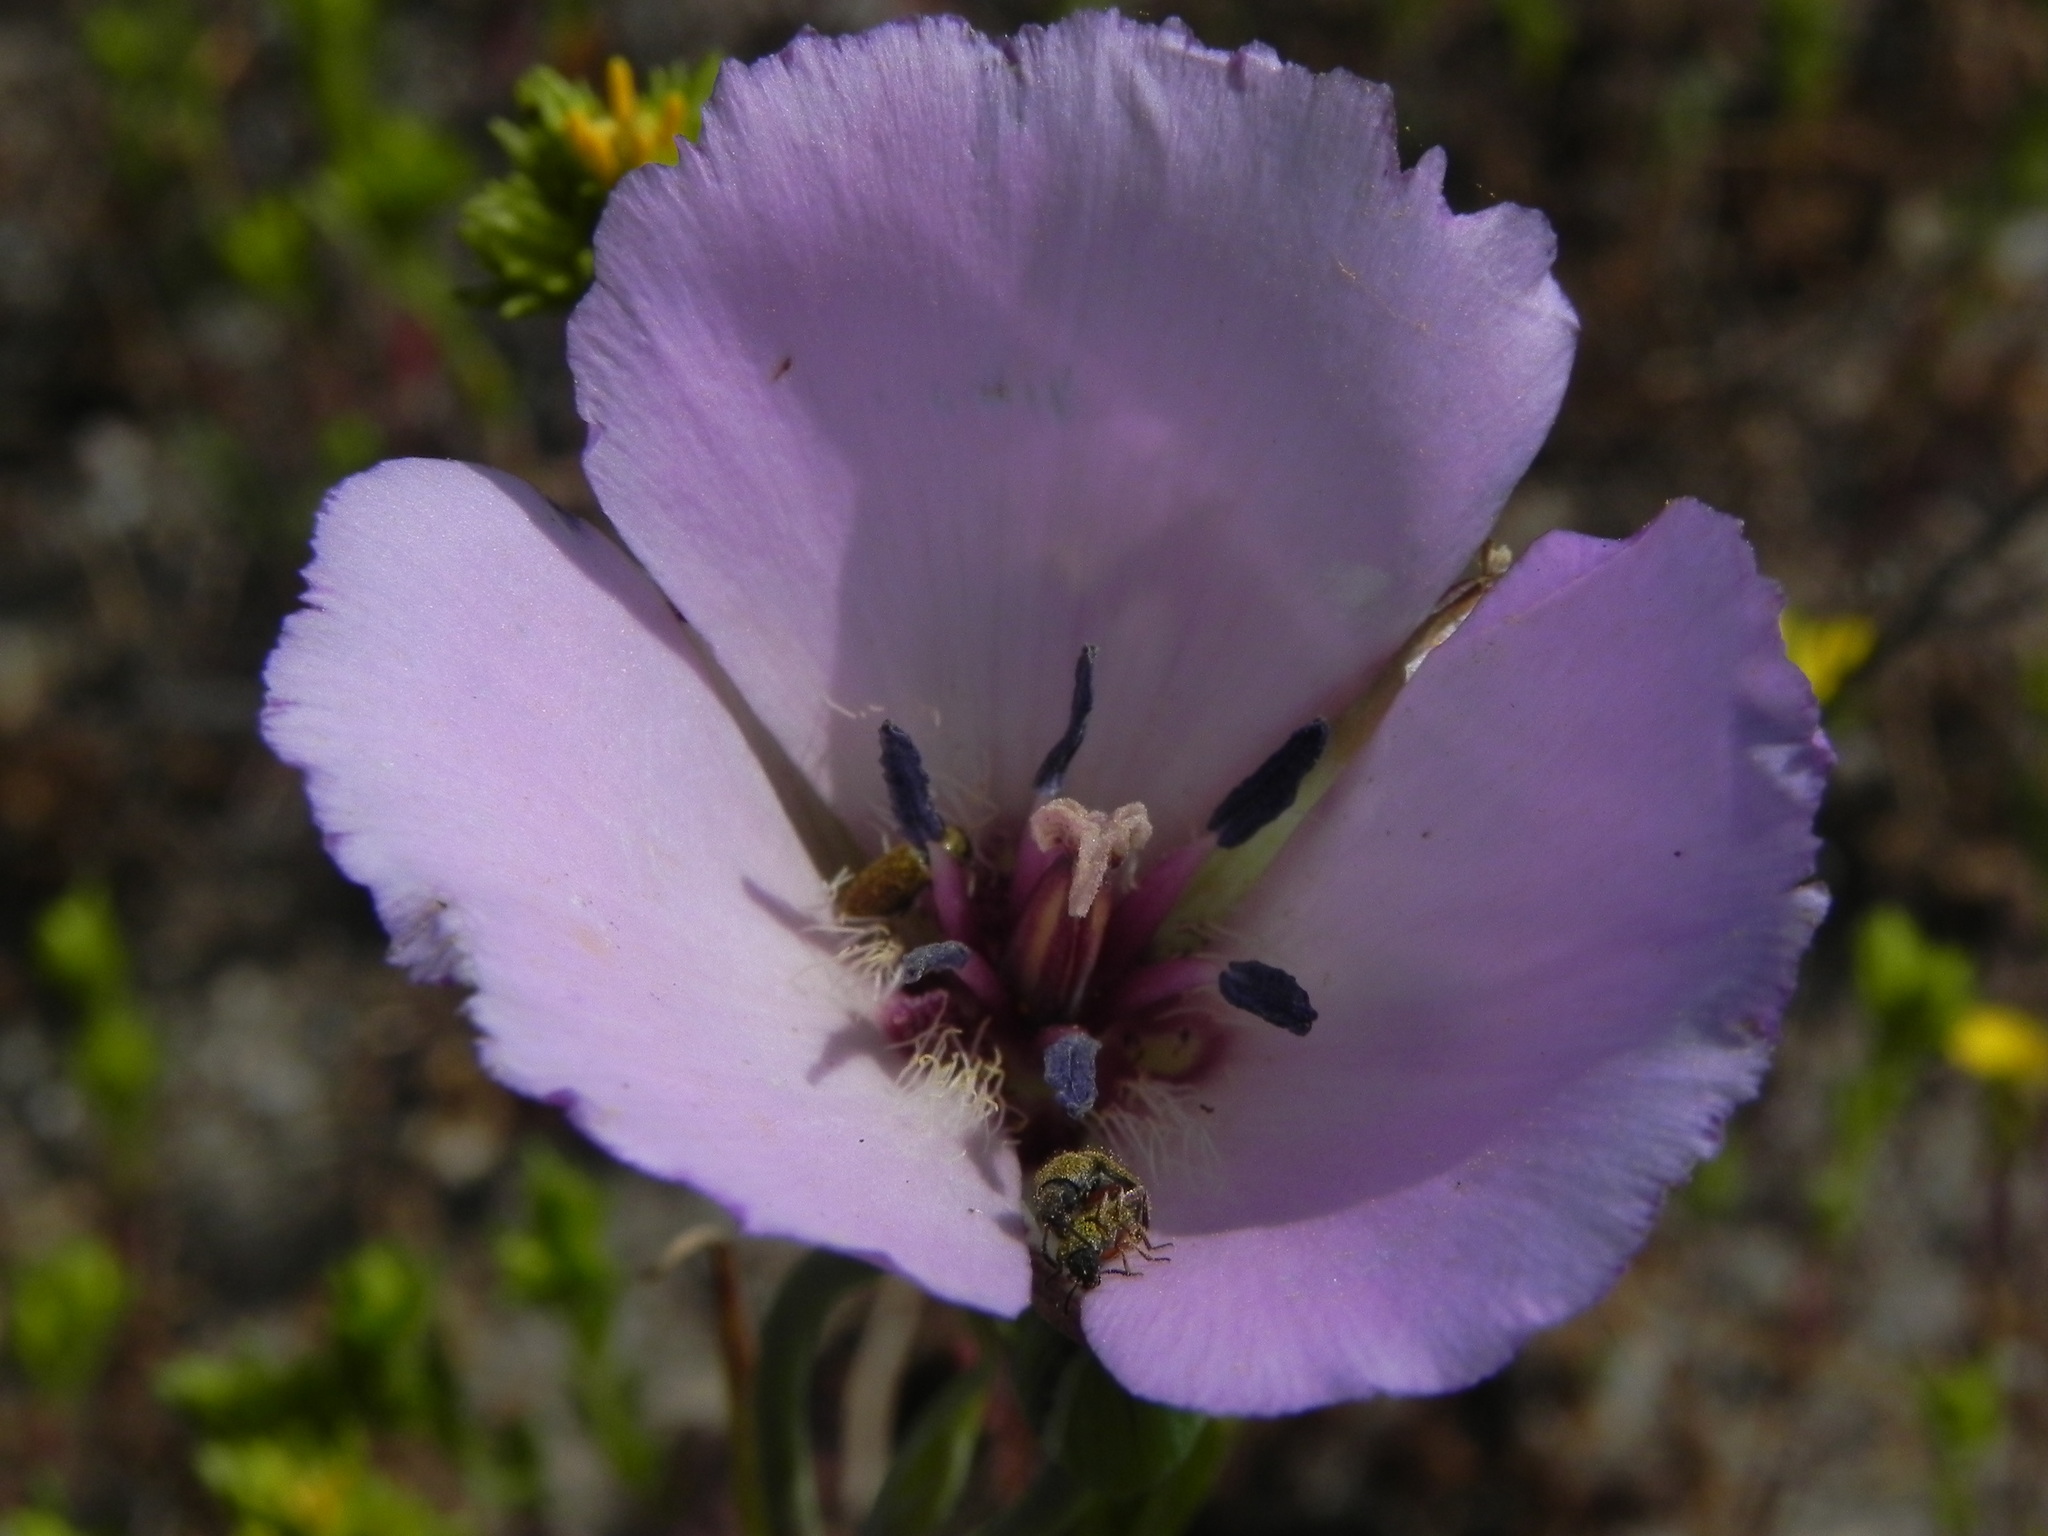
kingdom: Plantae
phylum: Tracheophyta
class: Liliopsida
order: Liliales
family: Liliaceae
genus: Calochortus
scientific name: Calochortus splendens
